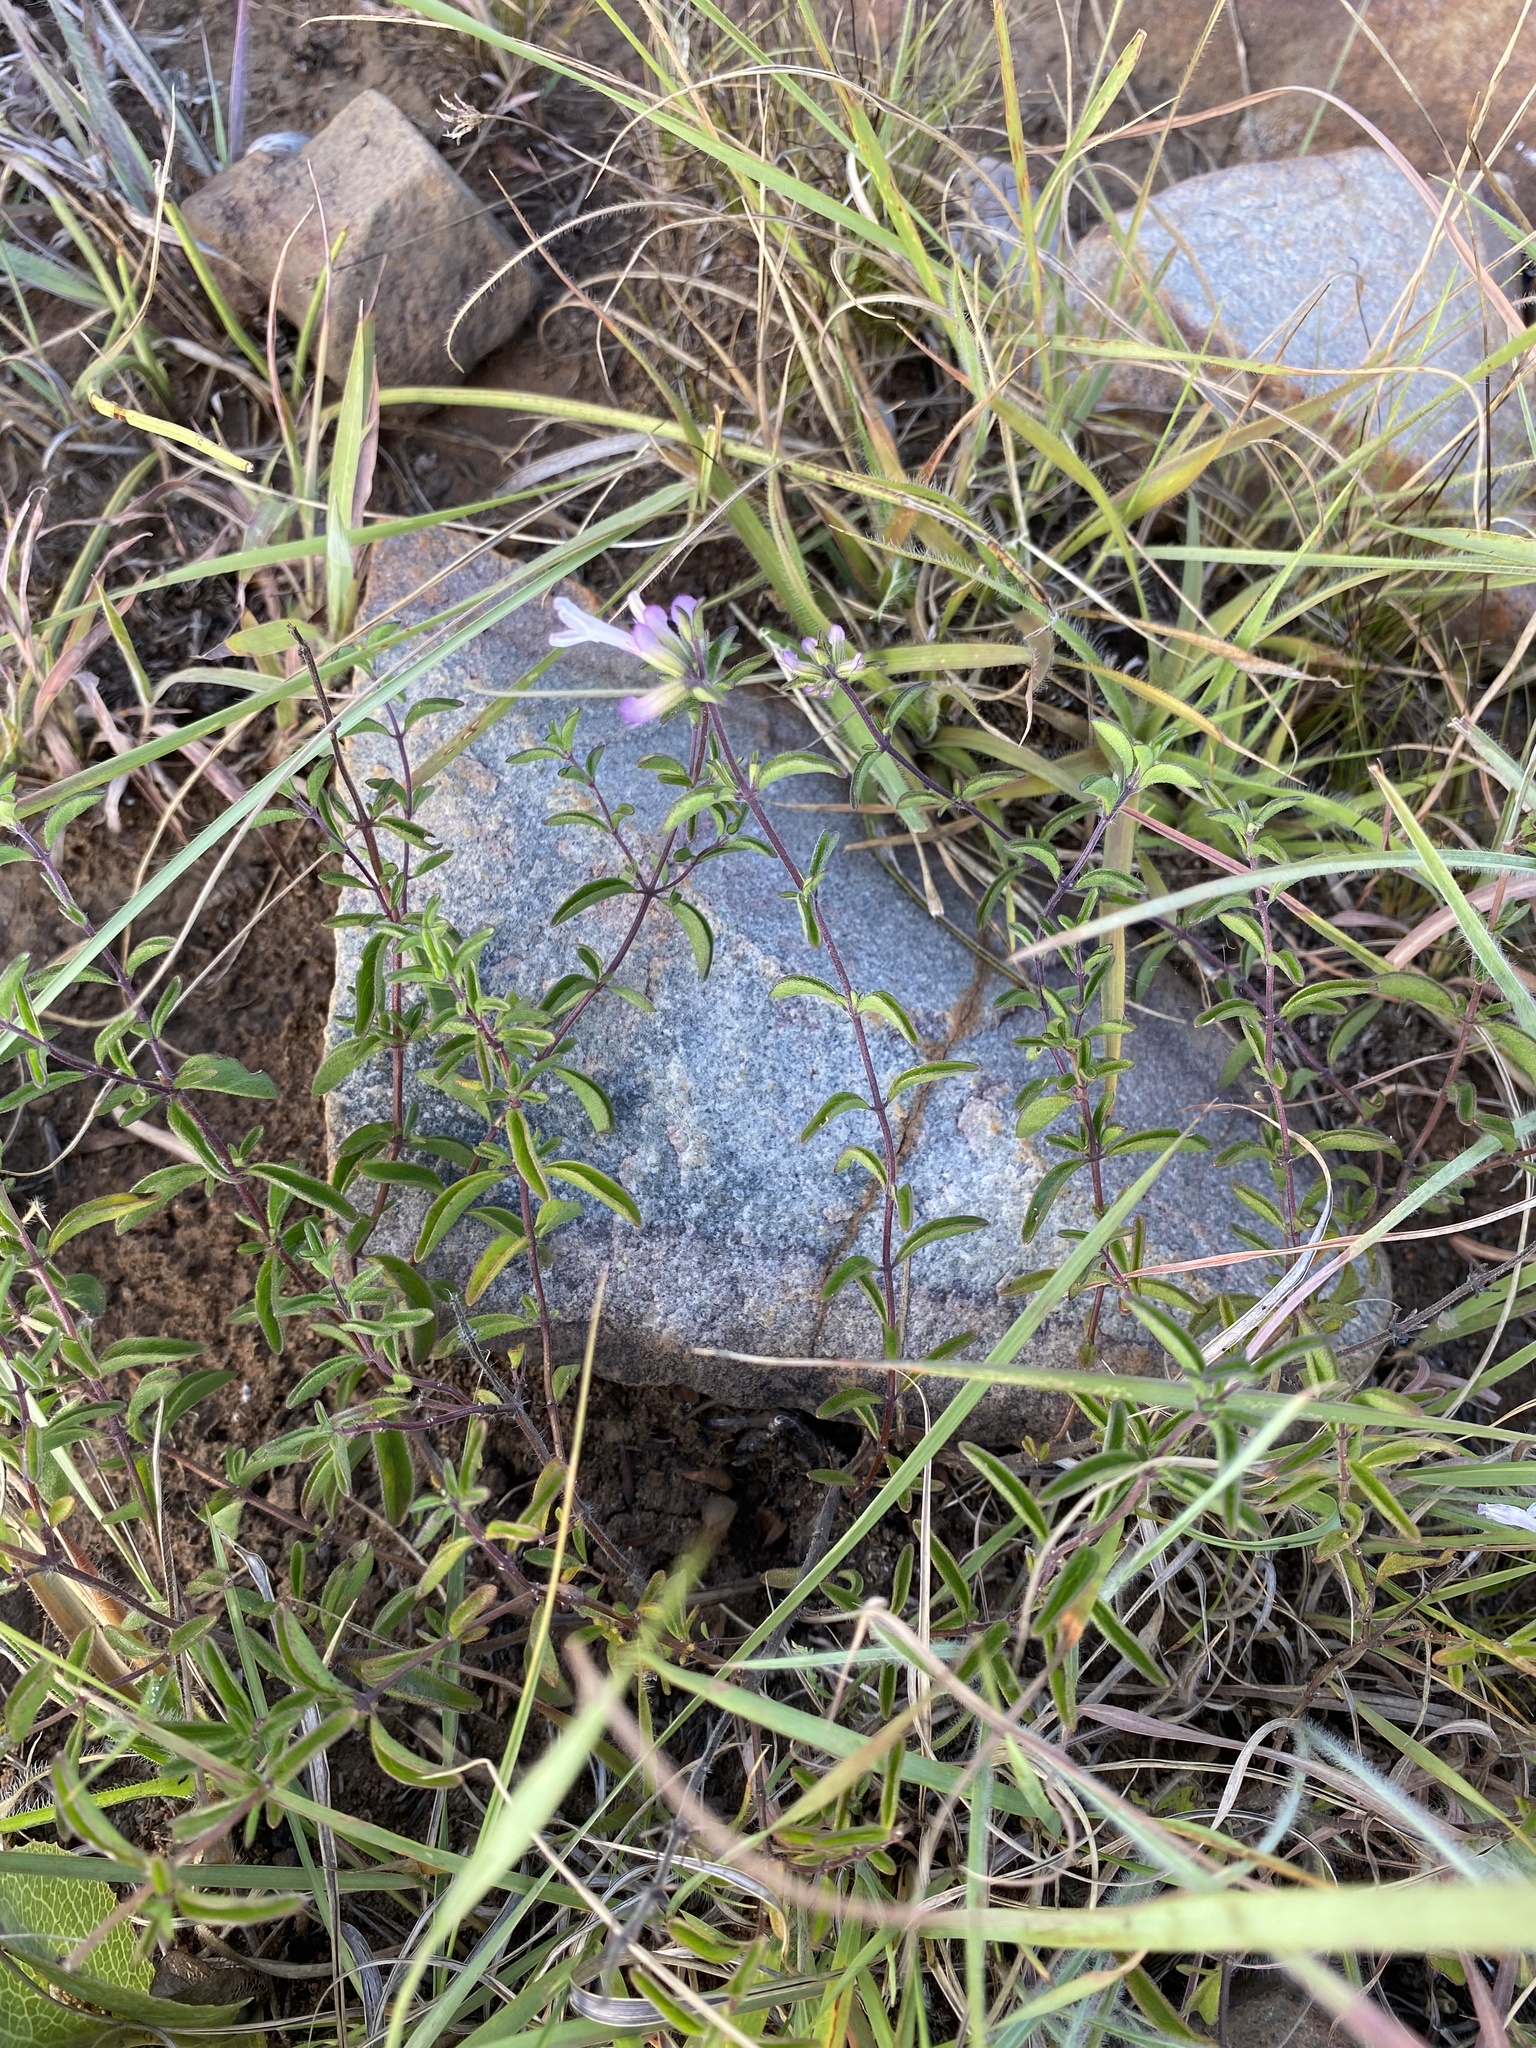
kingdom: Plantae
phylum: Tracheophyta
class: Magnoliopsida
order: Lamiales
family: Lamiaceae
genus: Syncolostemon
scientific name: Syncolostemon pretoriae
